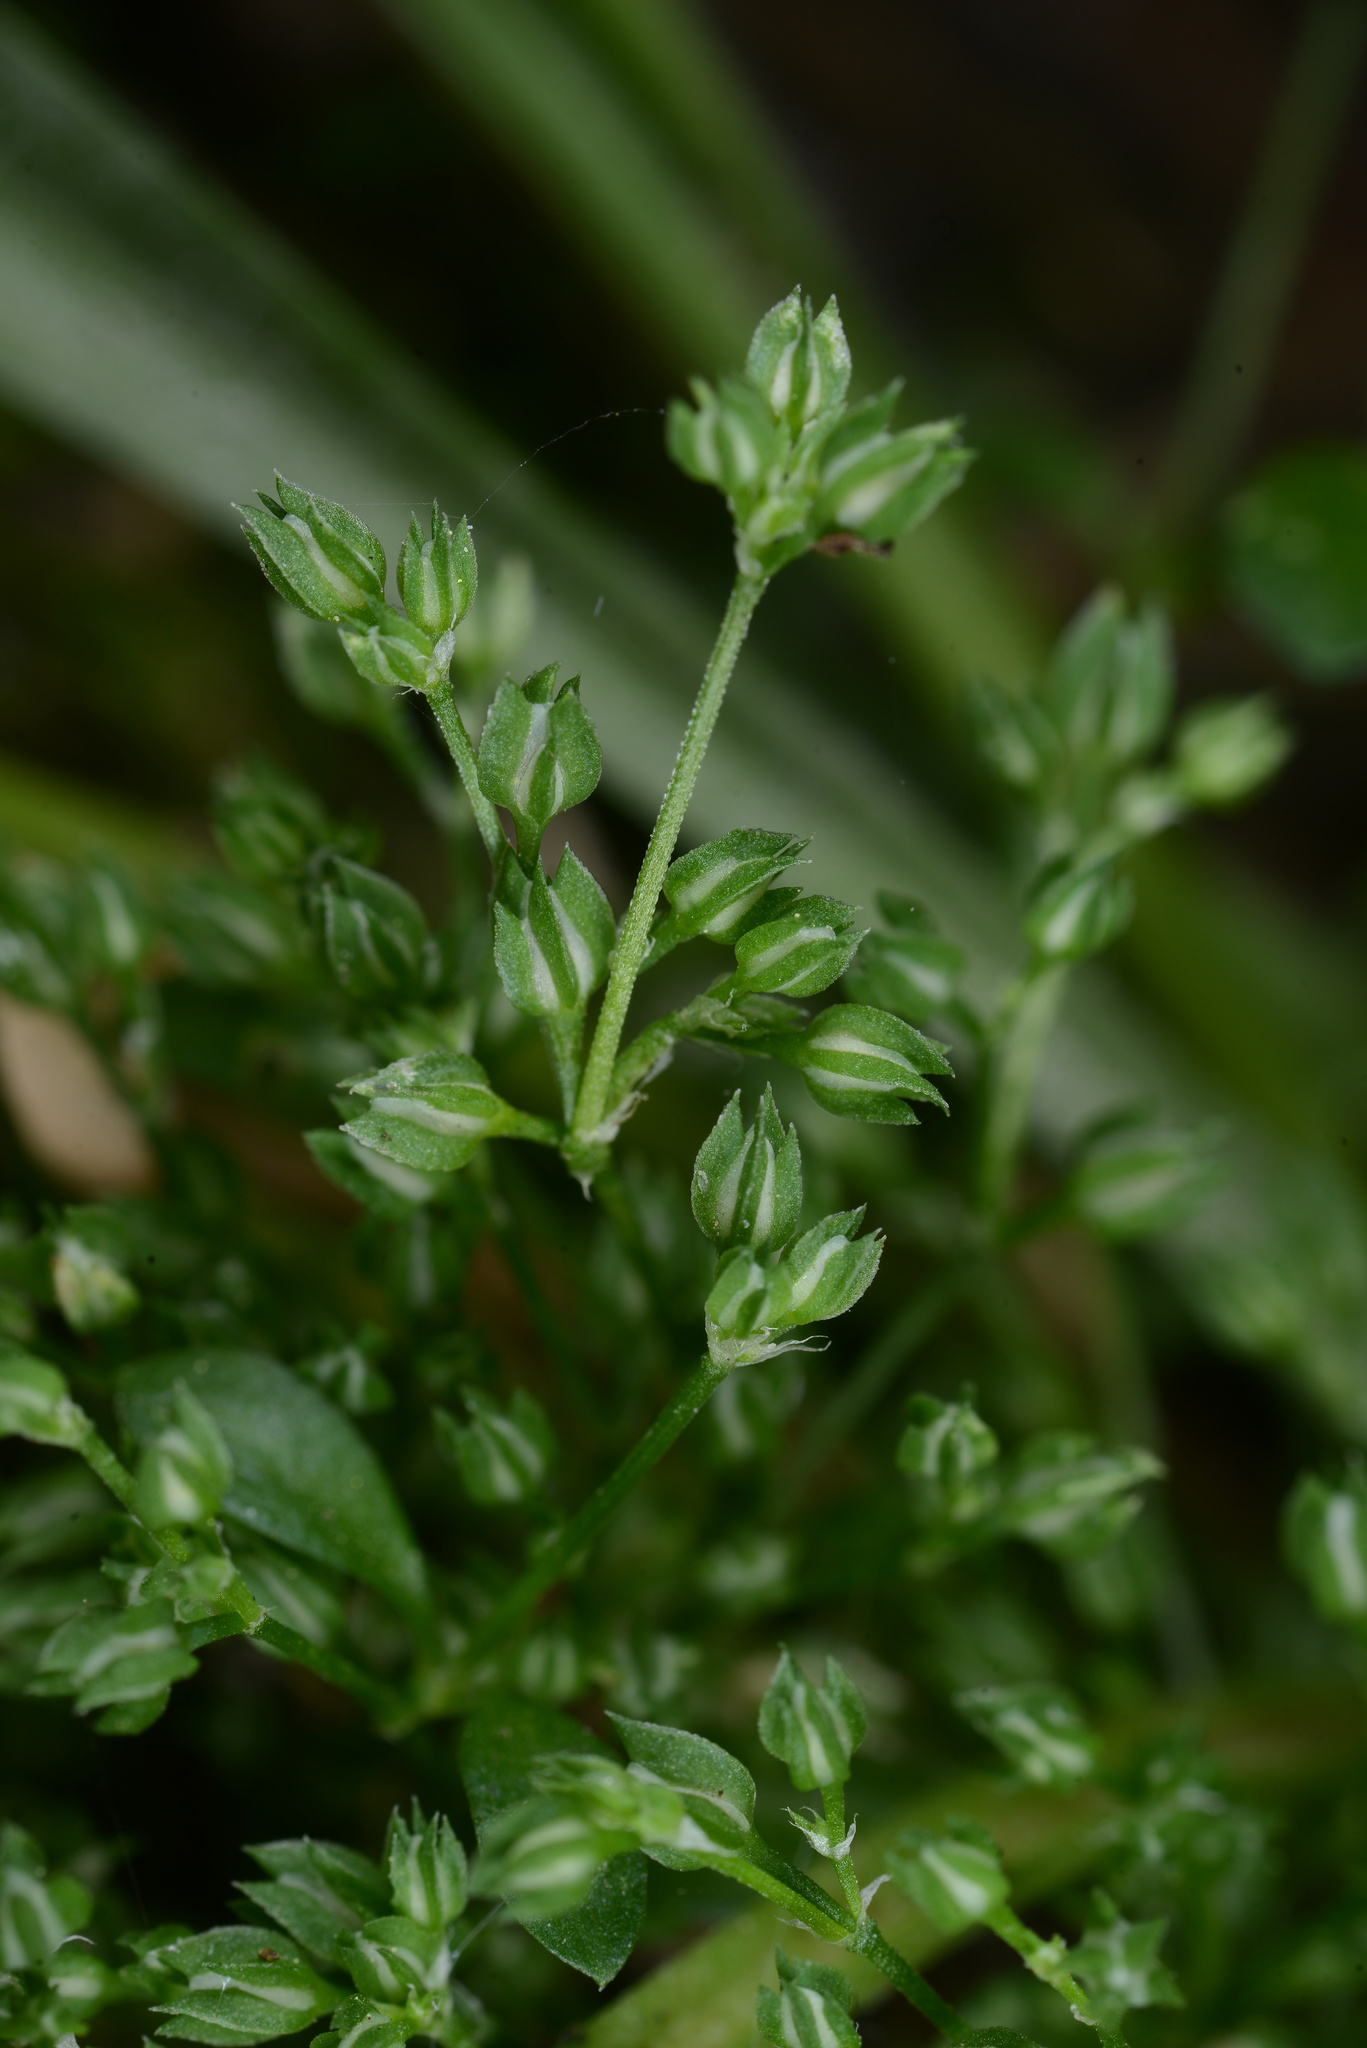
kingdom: Plantae
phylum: Tracheophyta
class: Magnoliopsida
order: Caryophyllales
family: Caryophyllaceae
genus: Polycarpon
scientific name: Polycarpon tetraphyllum
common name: Four-leaved all-seed
